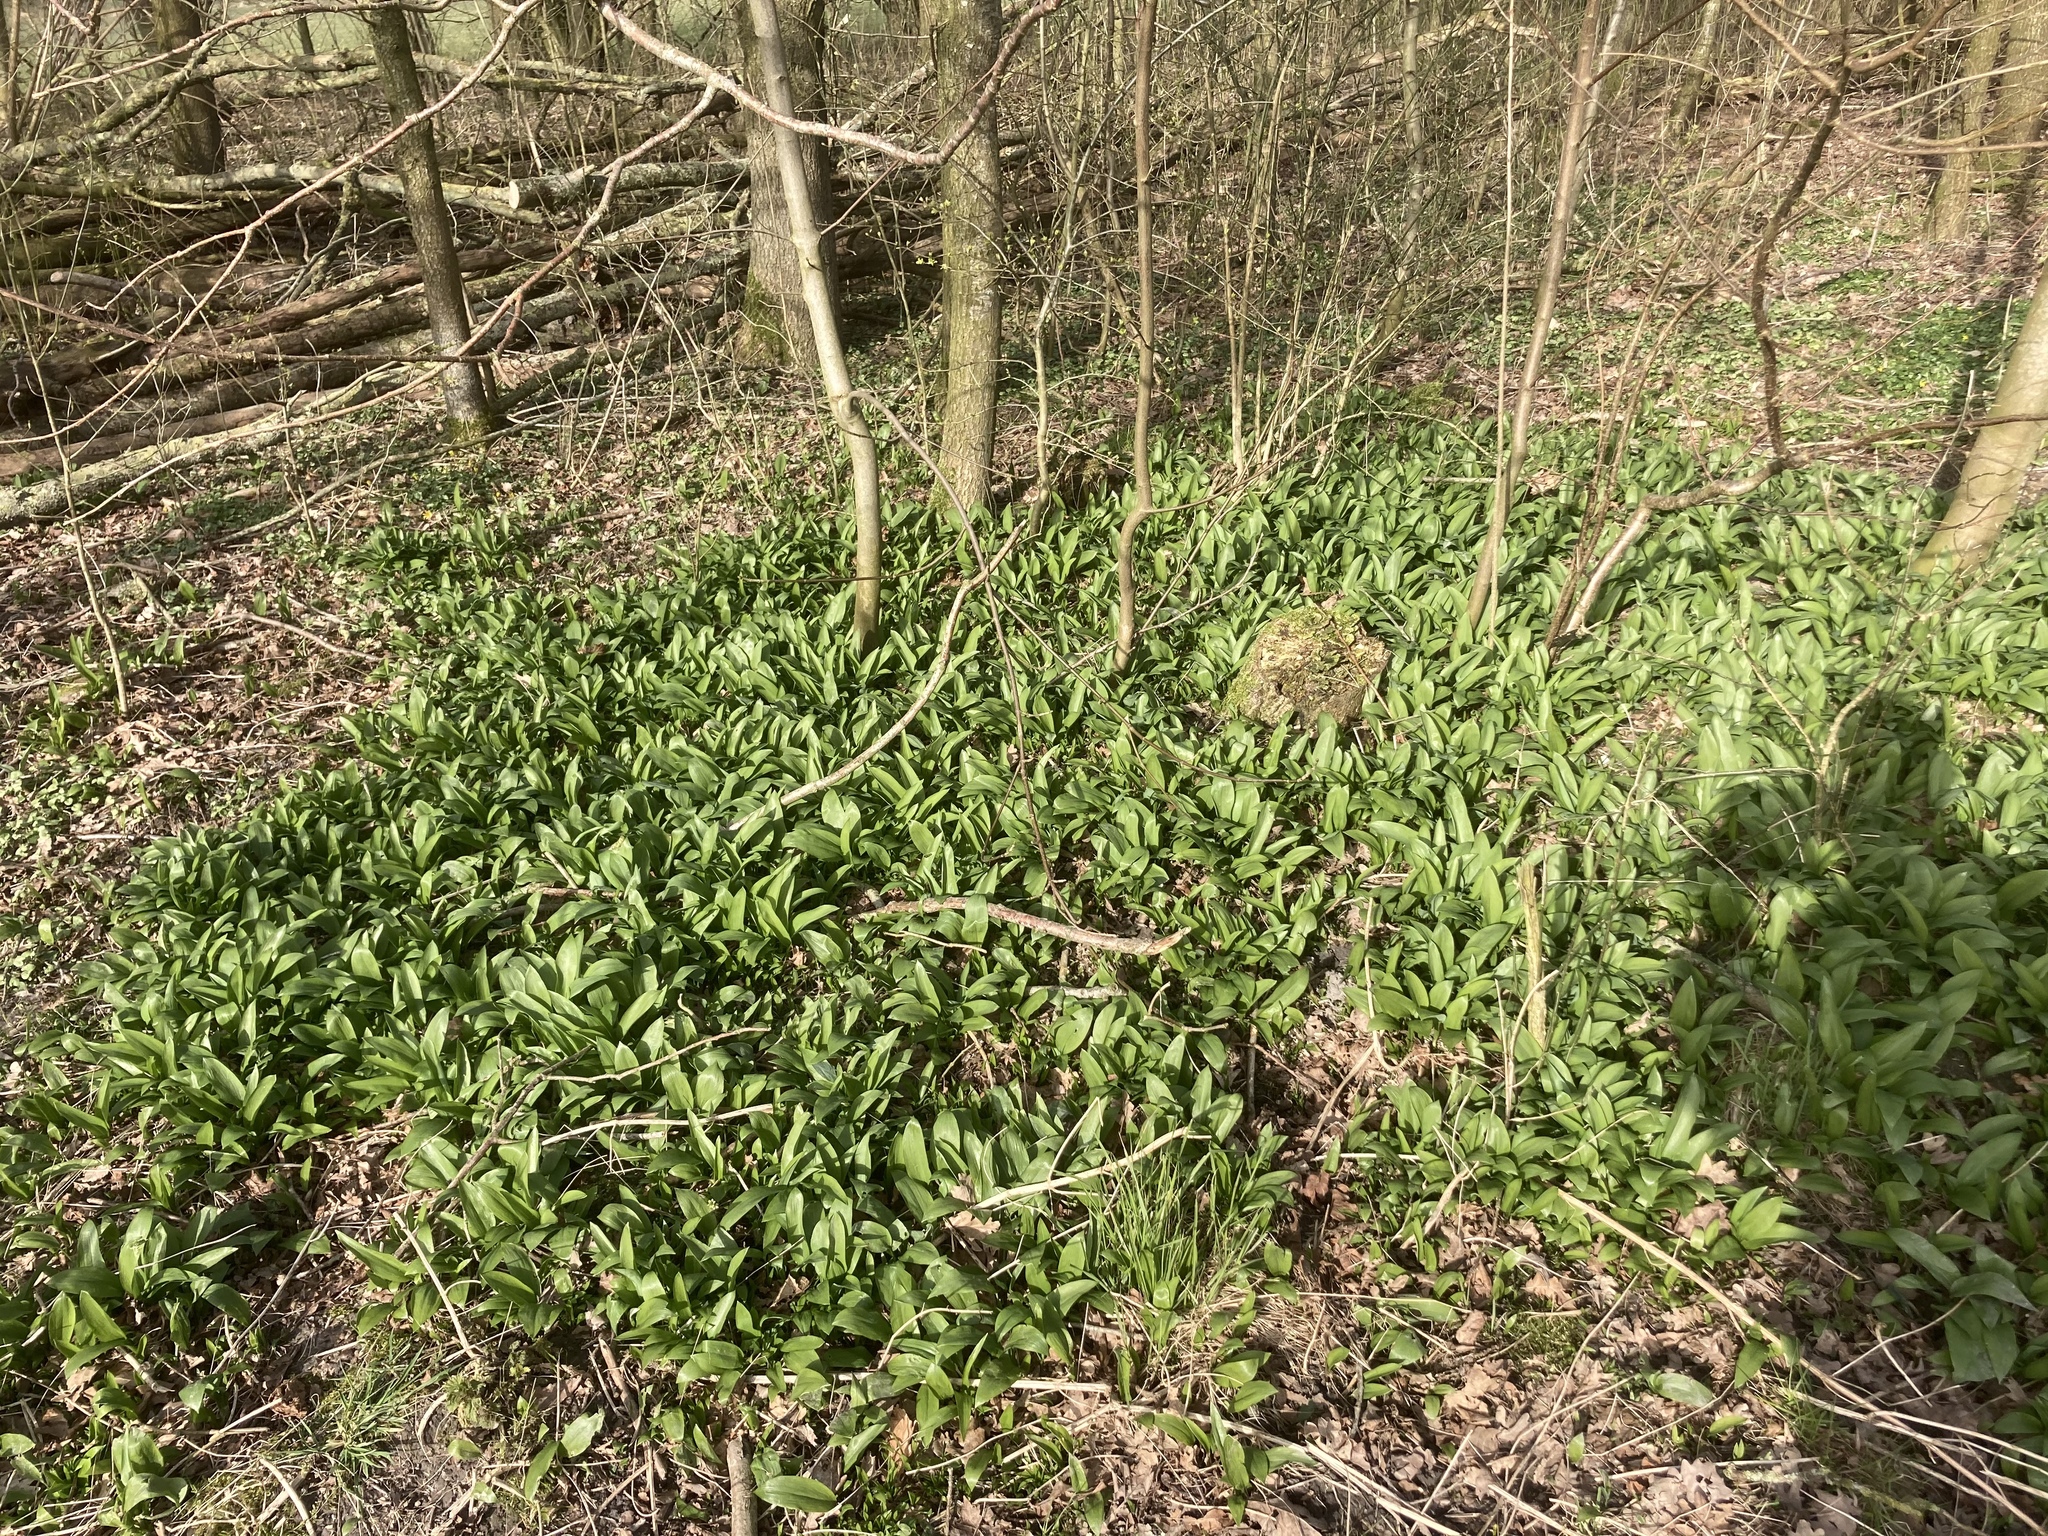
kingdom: Plantae
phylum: Tracheophyta
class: Liliopsida
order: Asparagales
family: Amaryllidaceae
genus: Allium
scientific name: Allium ursinum
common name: Ramsons
